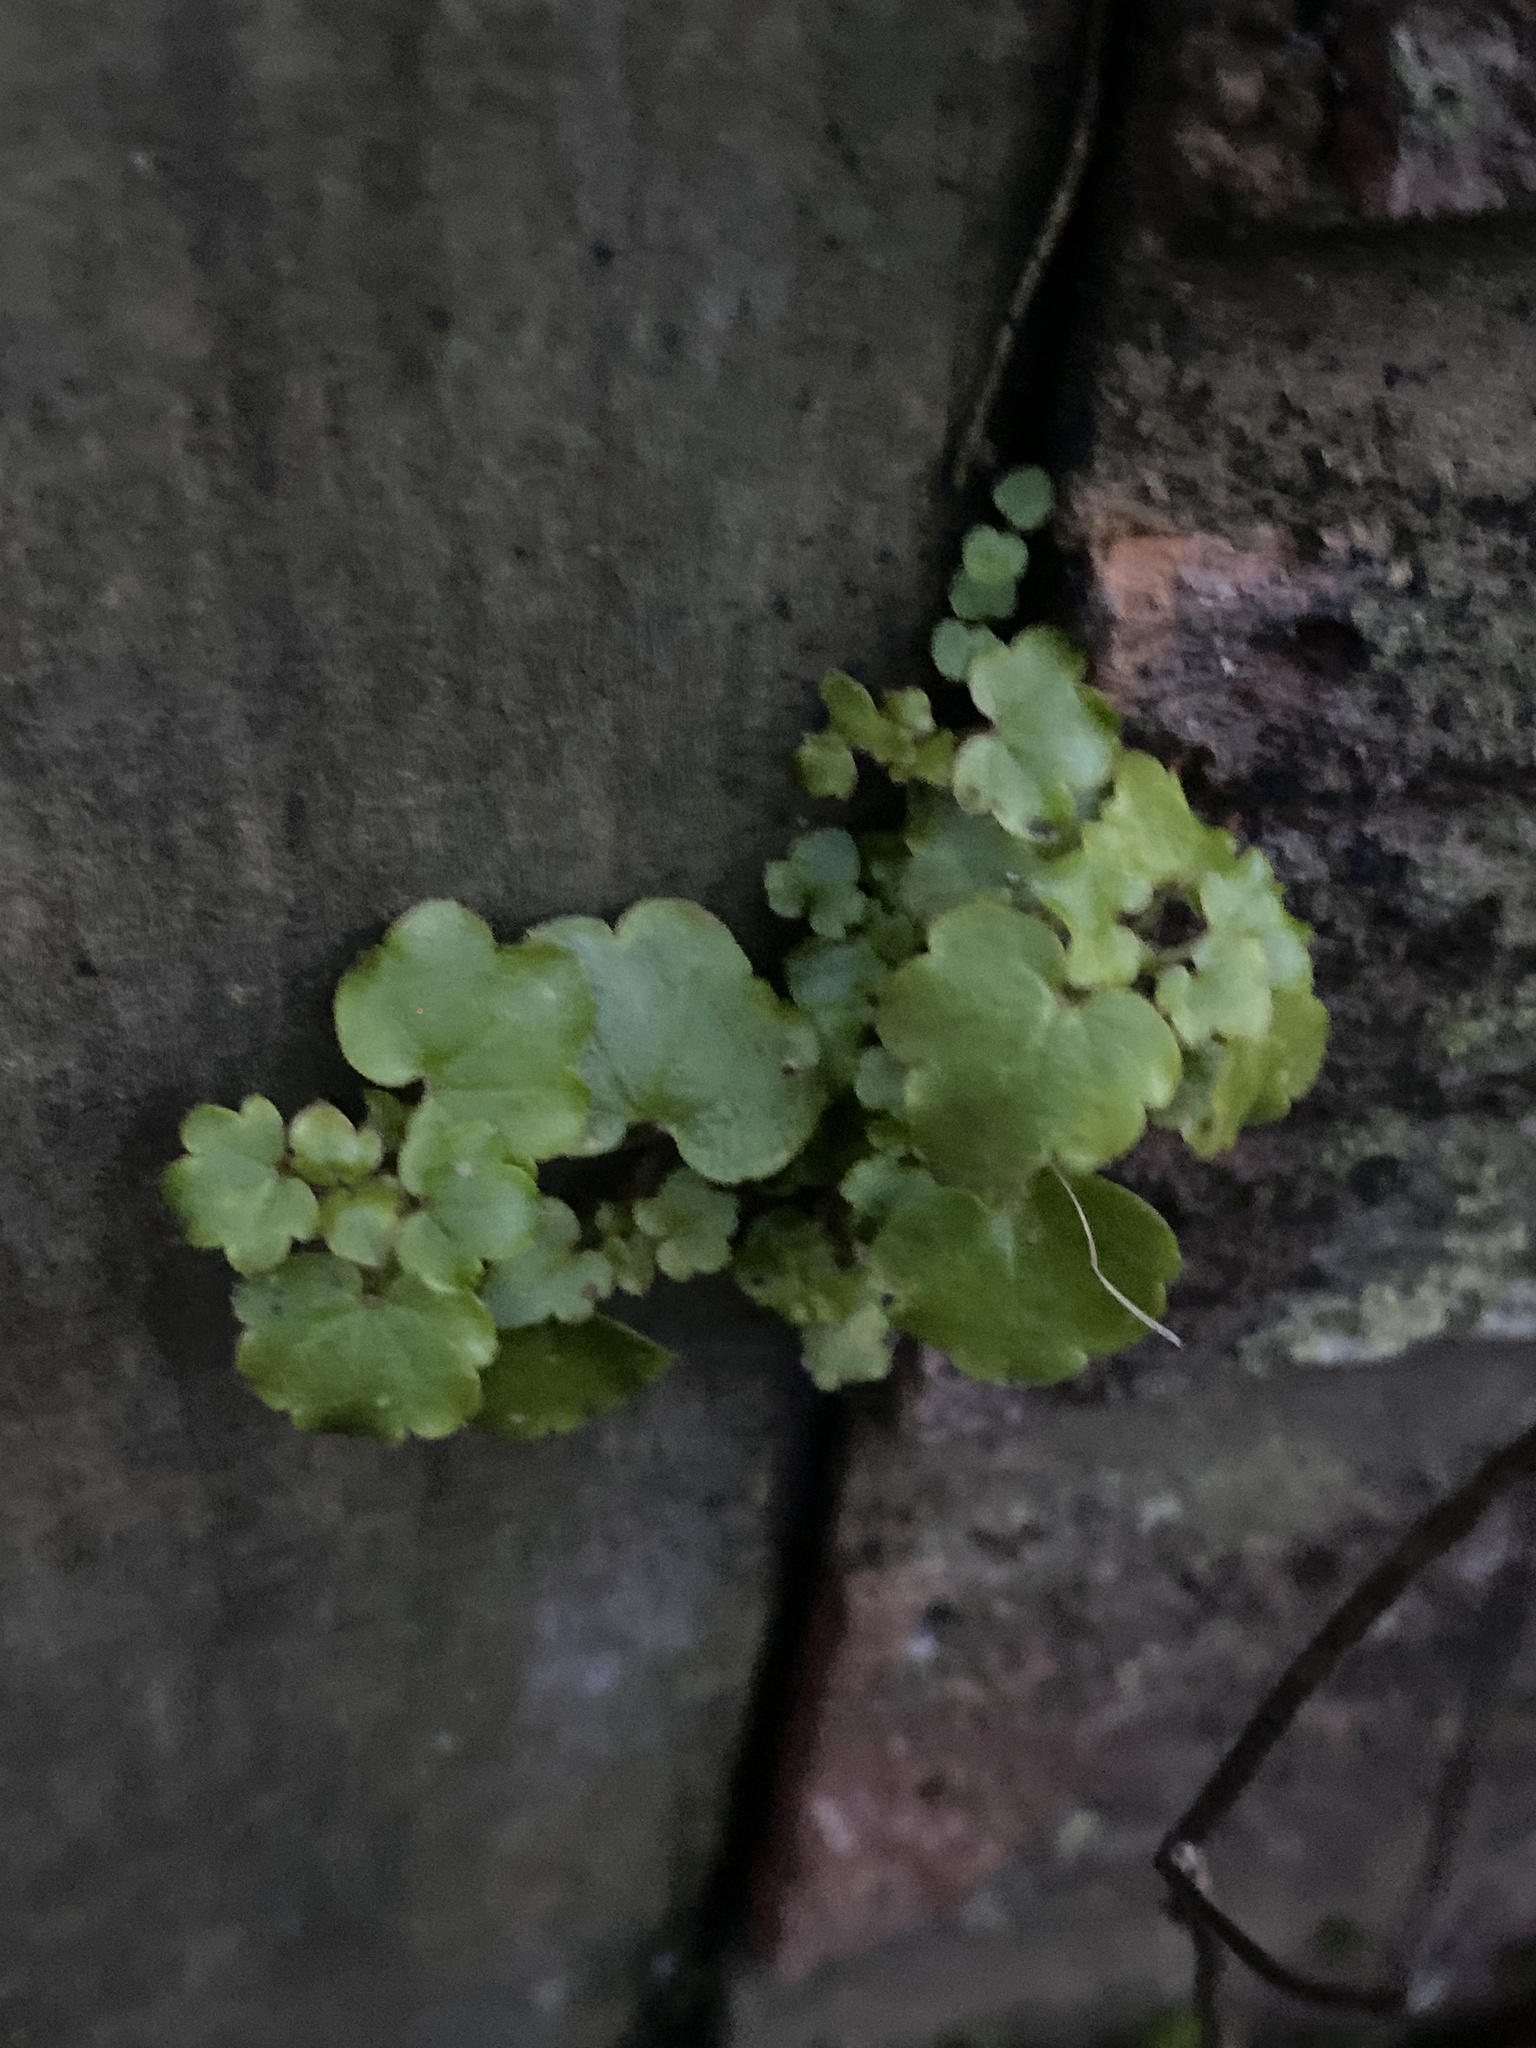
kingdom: Plantae
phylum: Tracheophyta
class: Magnoliopsida
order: Lamiales
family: Plantaginaceae
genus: Cymbalaria
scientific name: Cymbalaria muralis
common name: Ivy-leaved toadflax
